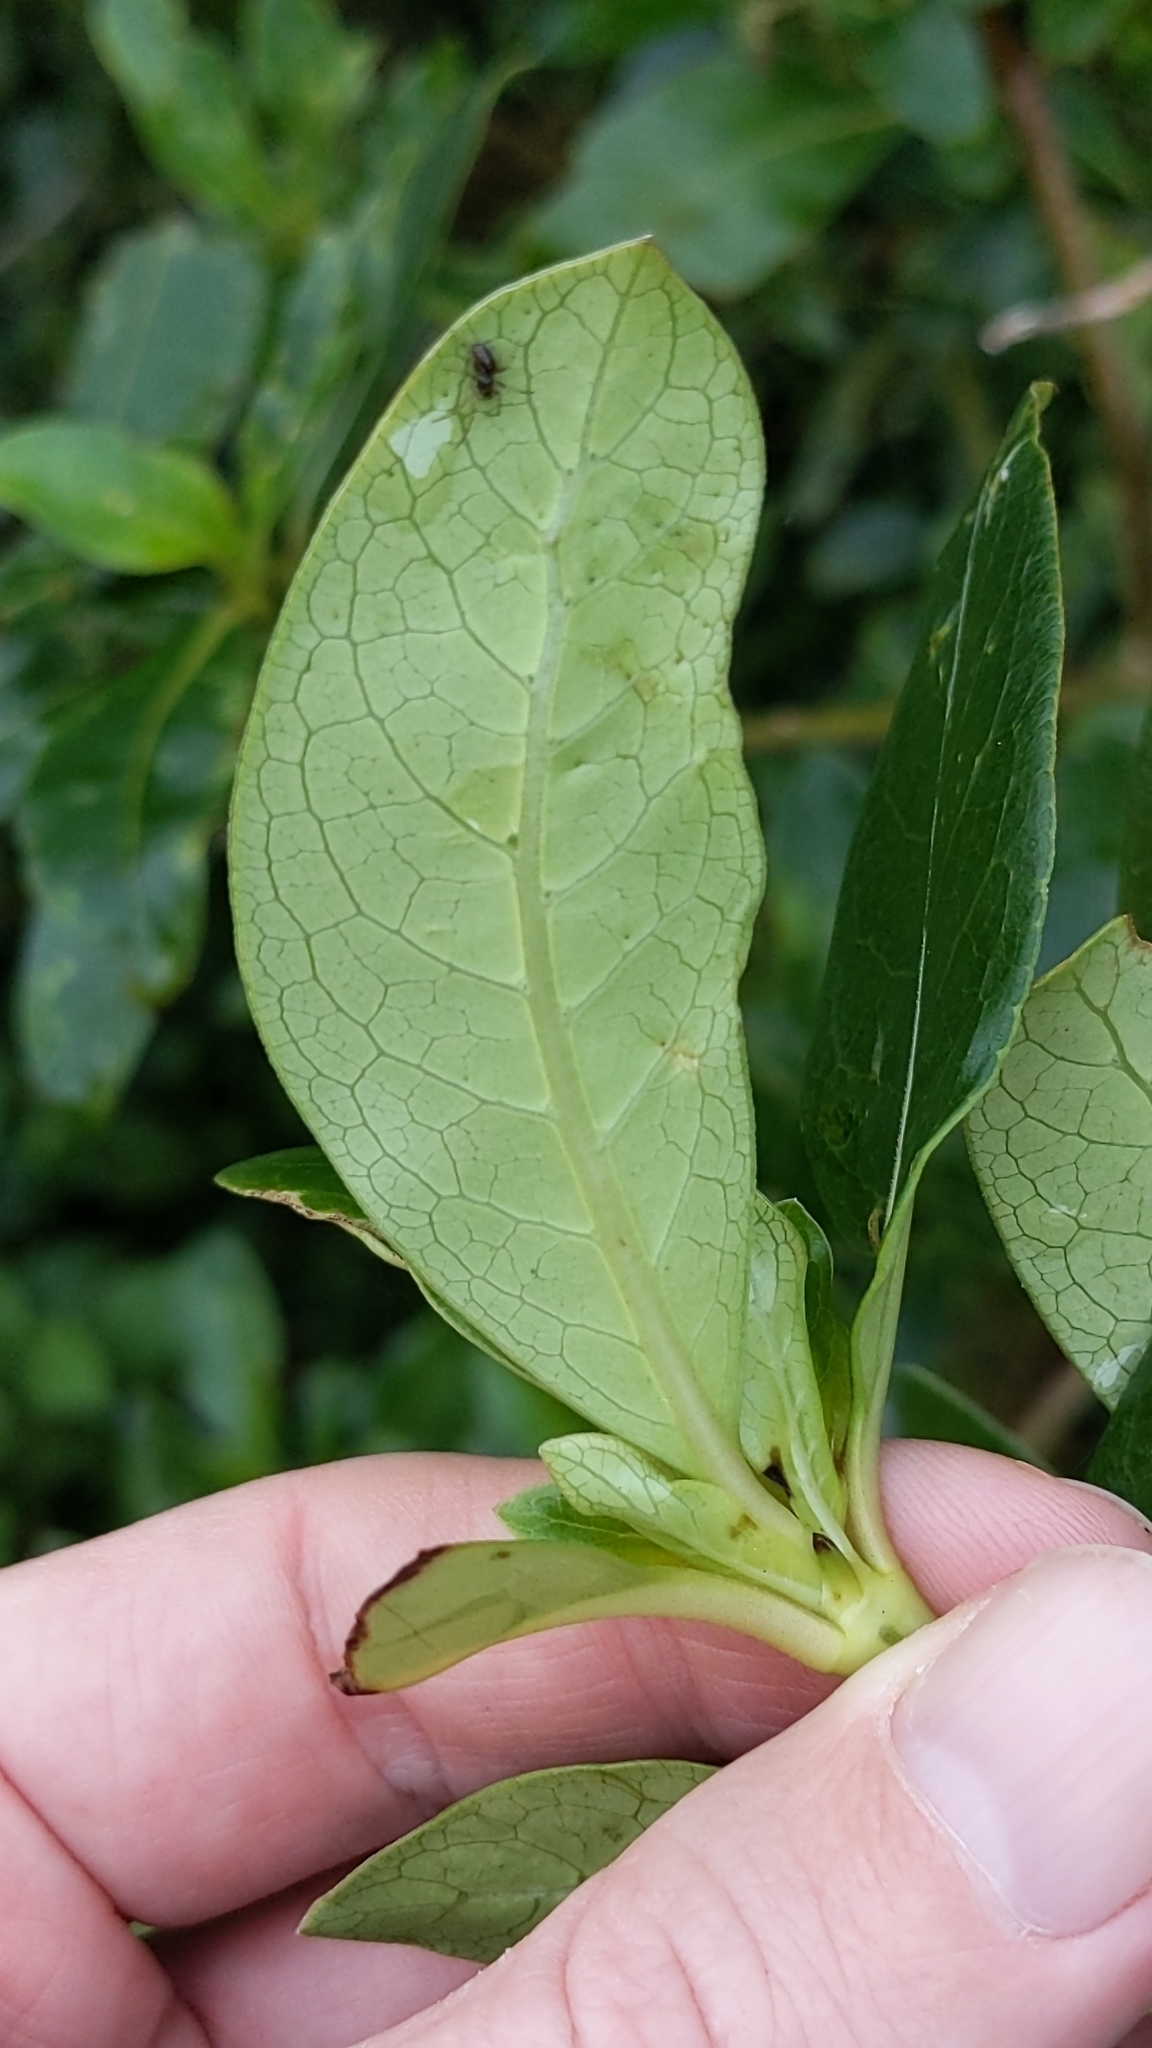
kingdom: Plantae
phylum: Tracheophyta
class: Magnoliopsida
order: Gentianales
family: Rubiaceae
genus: Coprosma
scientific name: Coprosma robusta
